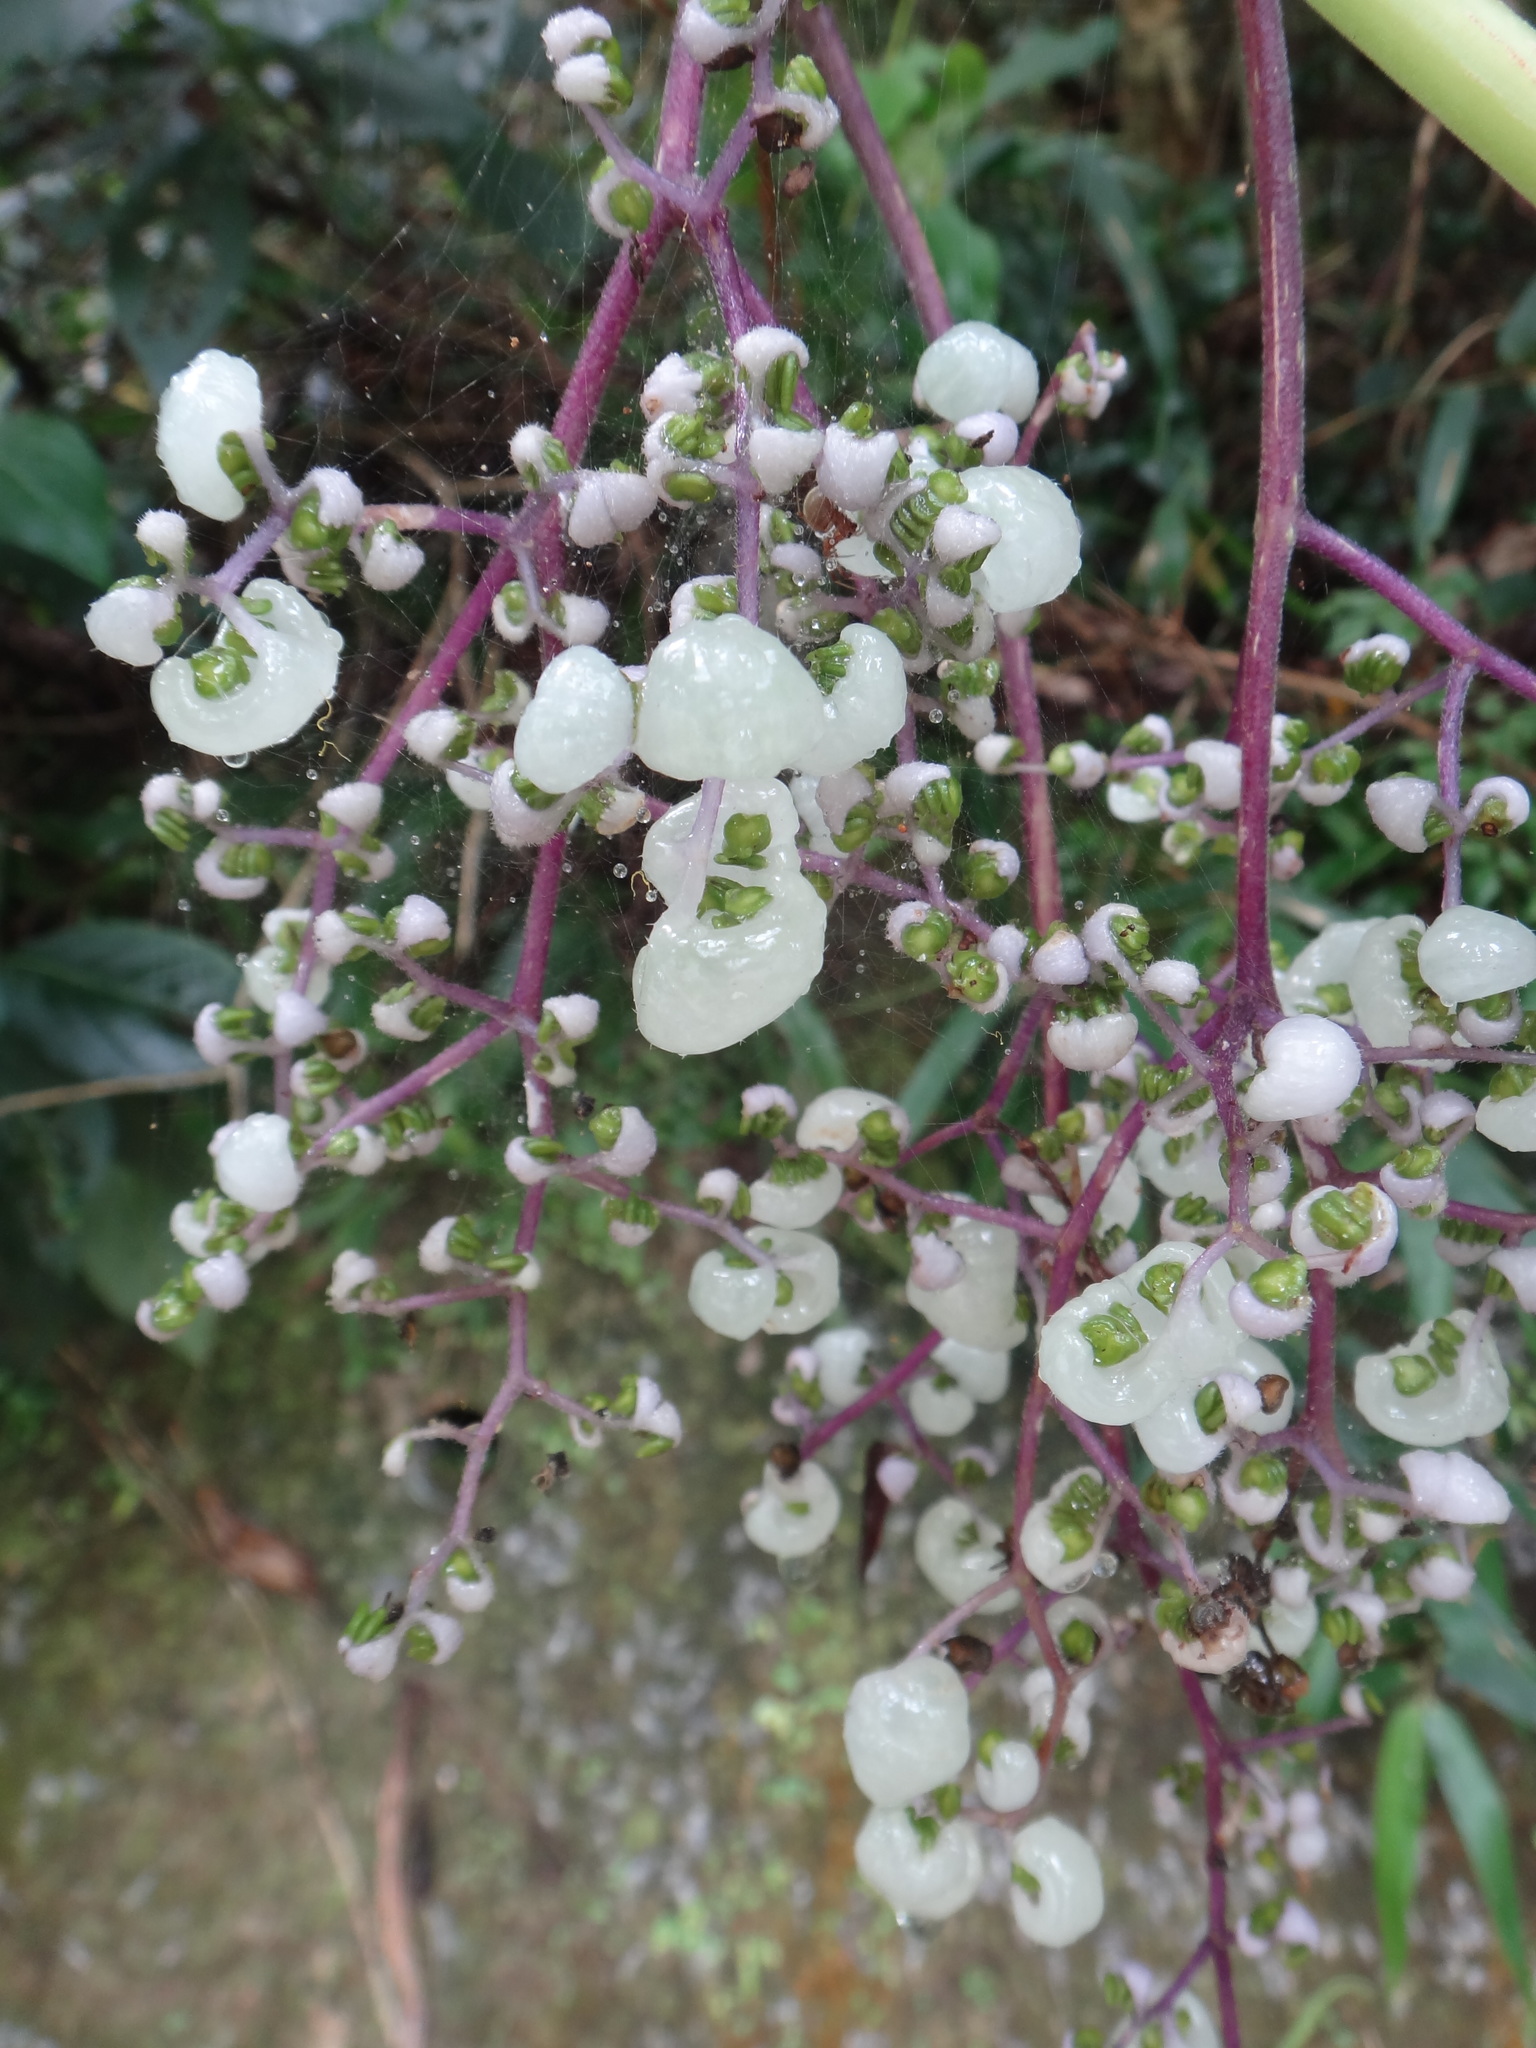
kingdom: Plantae
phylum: Tracheophyta
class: Magnoliopsida
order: Rosales
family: Urticaceae
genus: Dendrocnide
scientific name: Dendrocnide meyeniana
